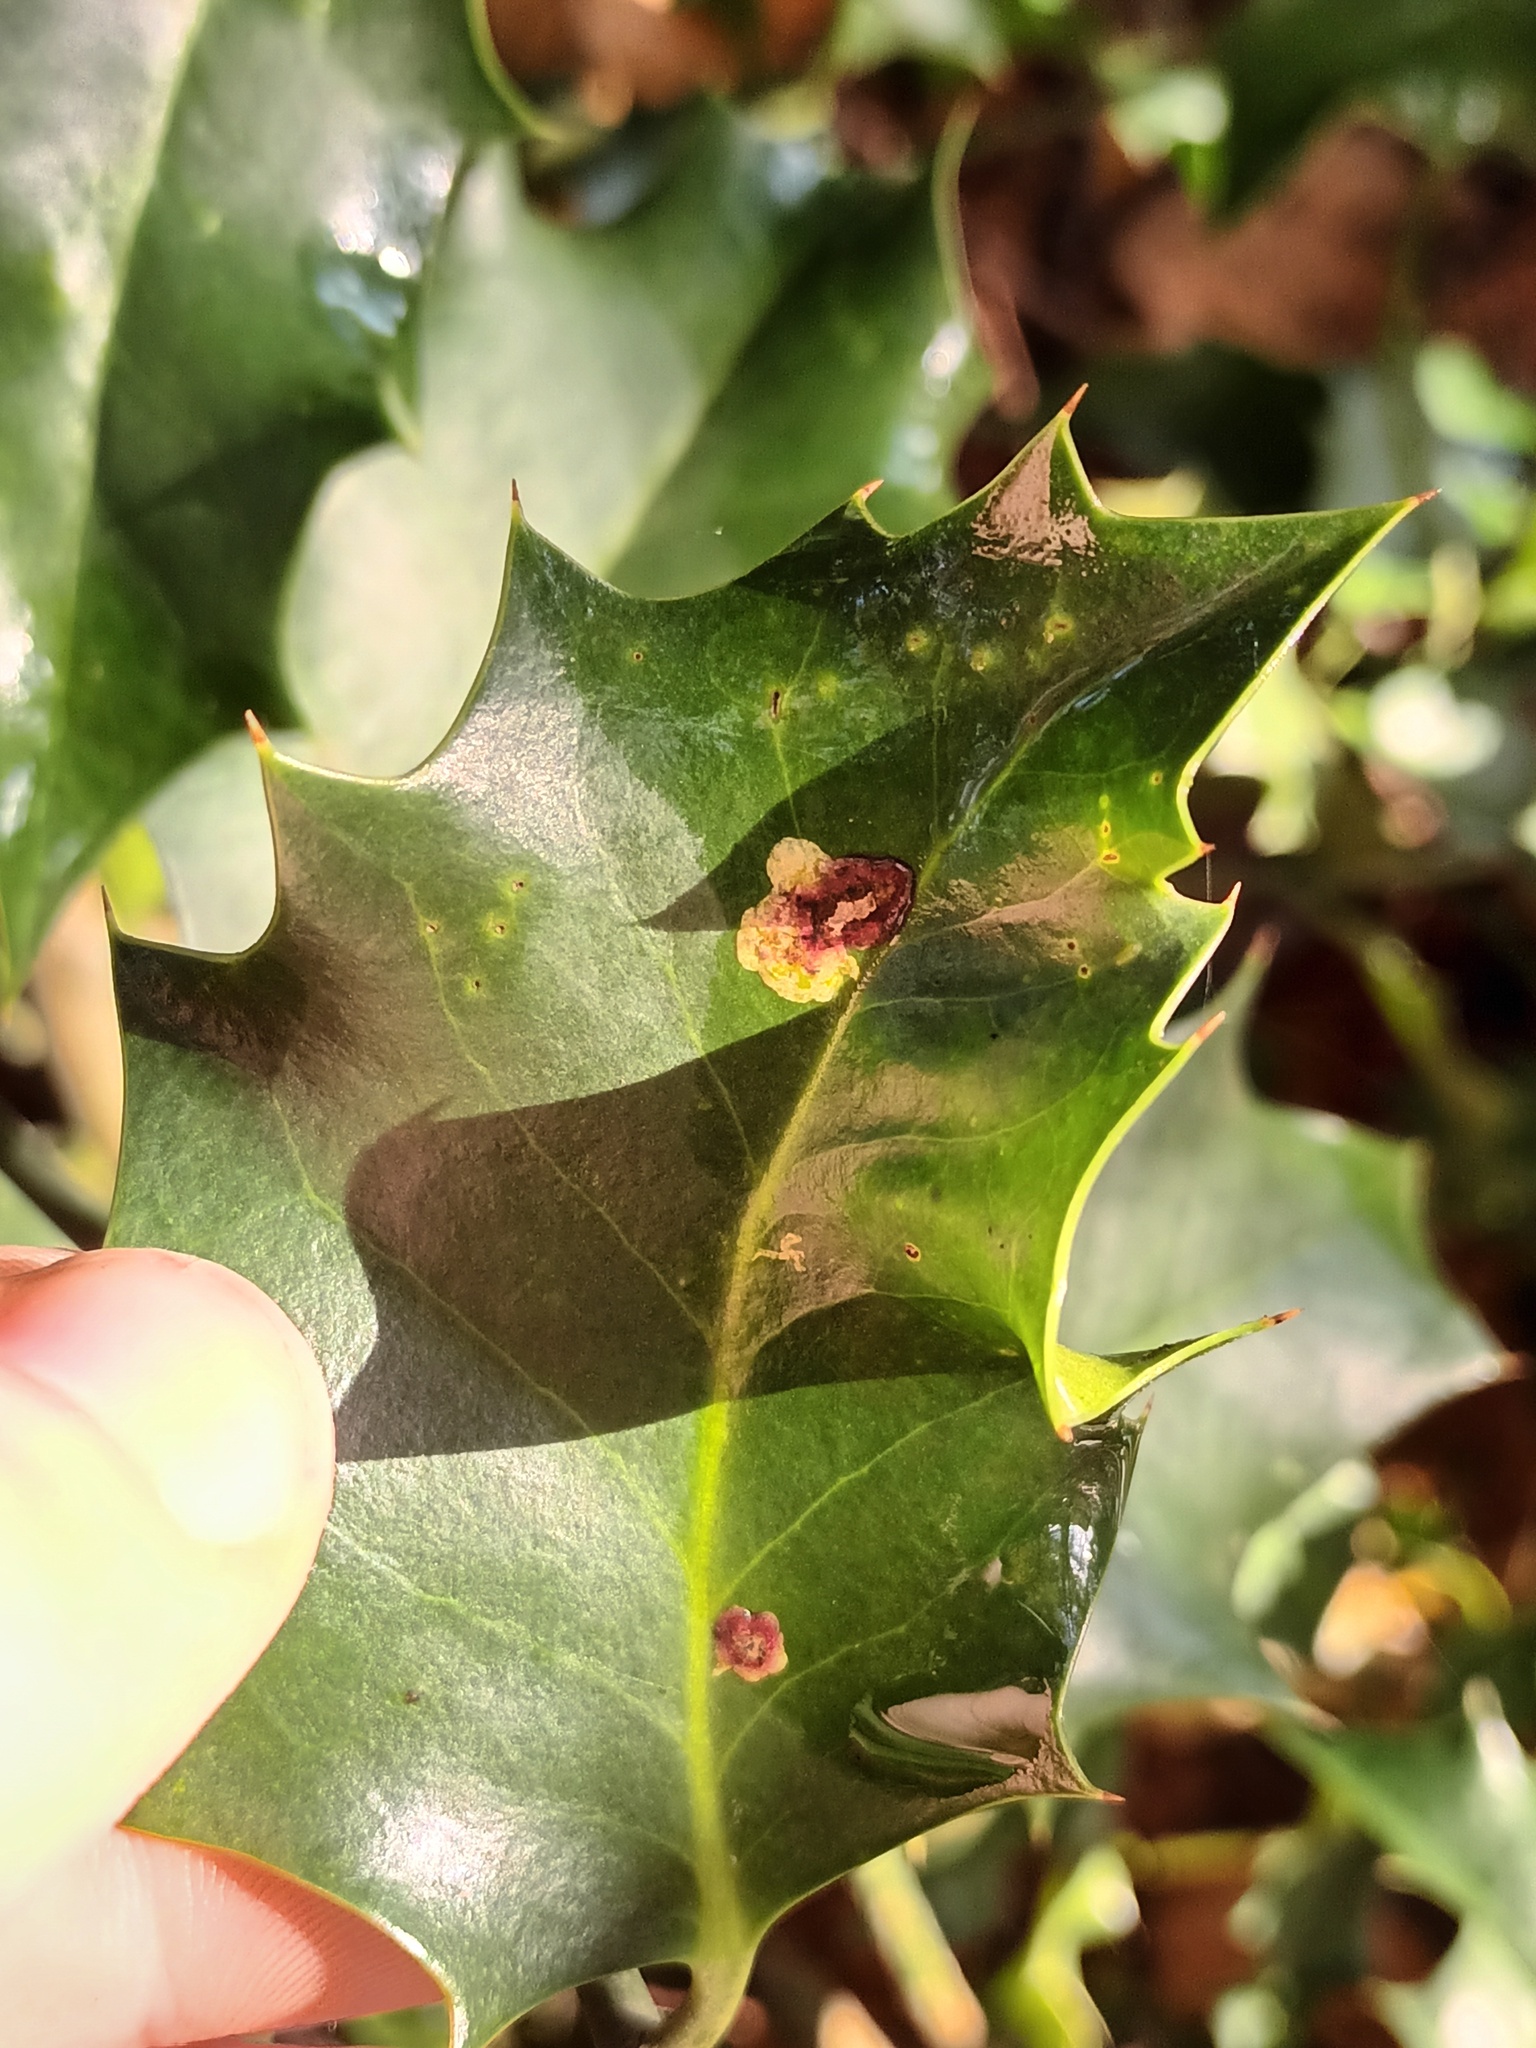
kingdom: Animalia
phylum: Arthropoda
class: Insecta
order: Diptera
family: Agromyzidae
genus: Phytomyza
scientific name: Phytomyza ilicis
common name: Holly leafminer
